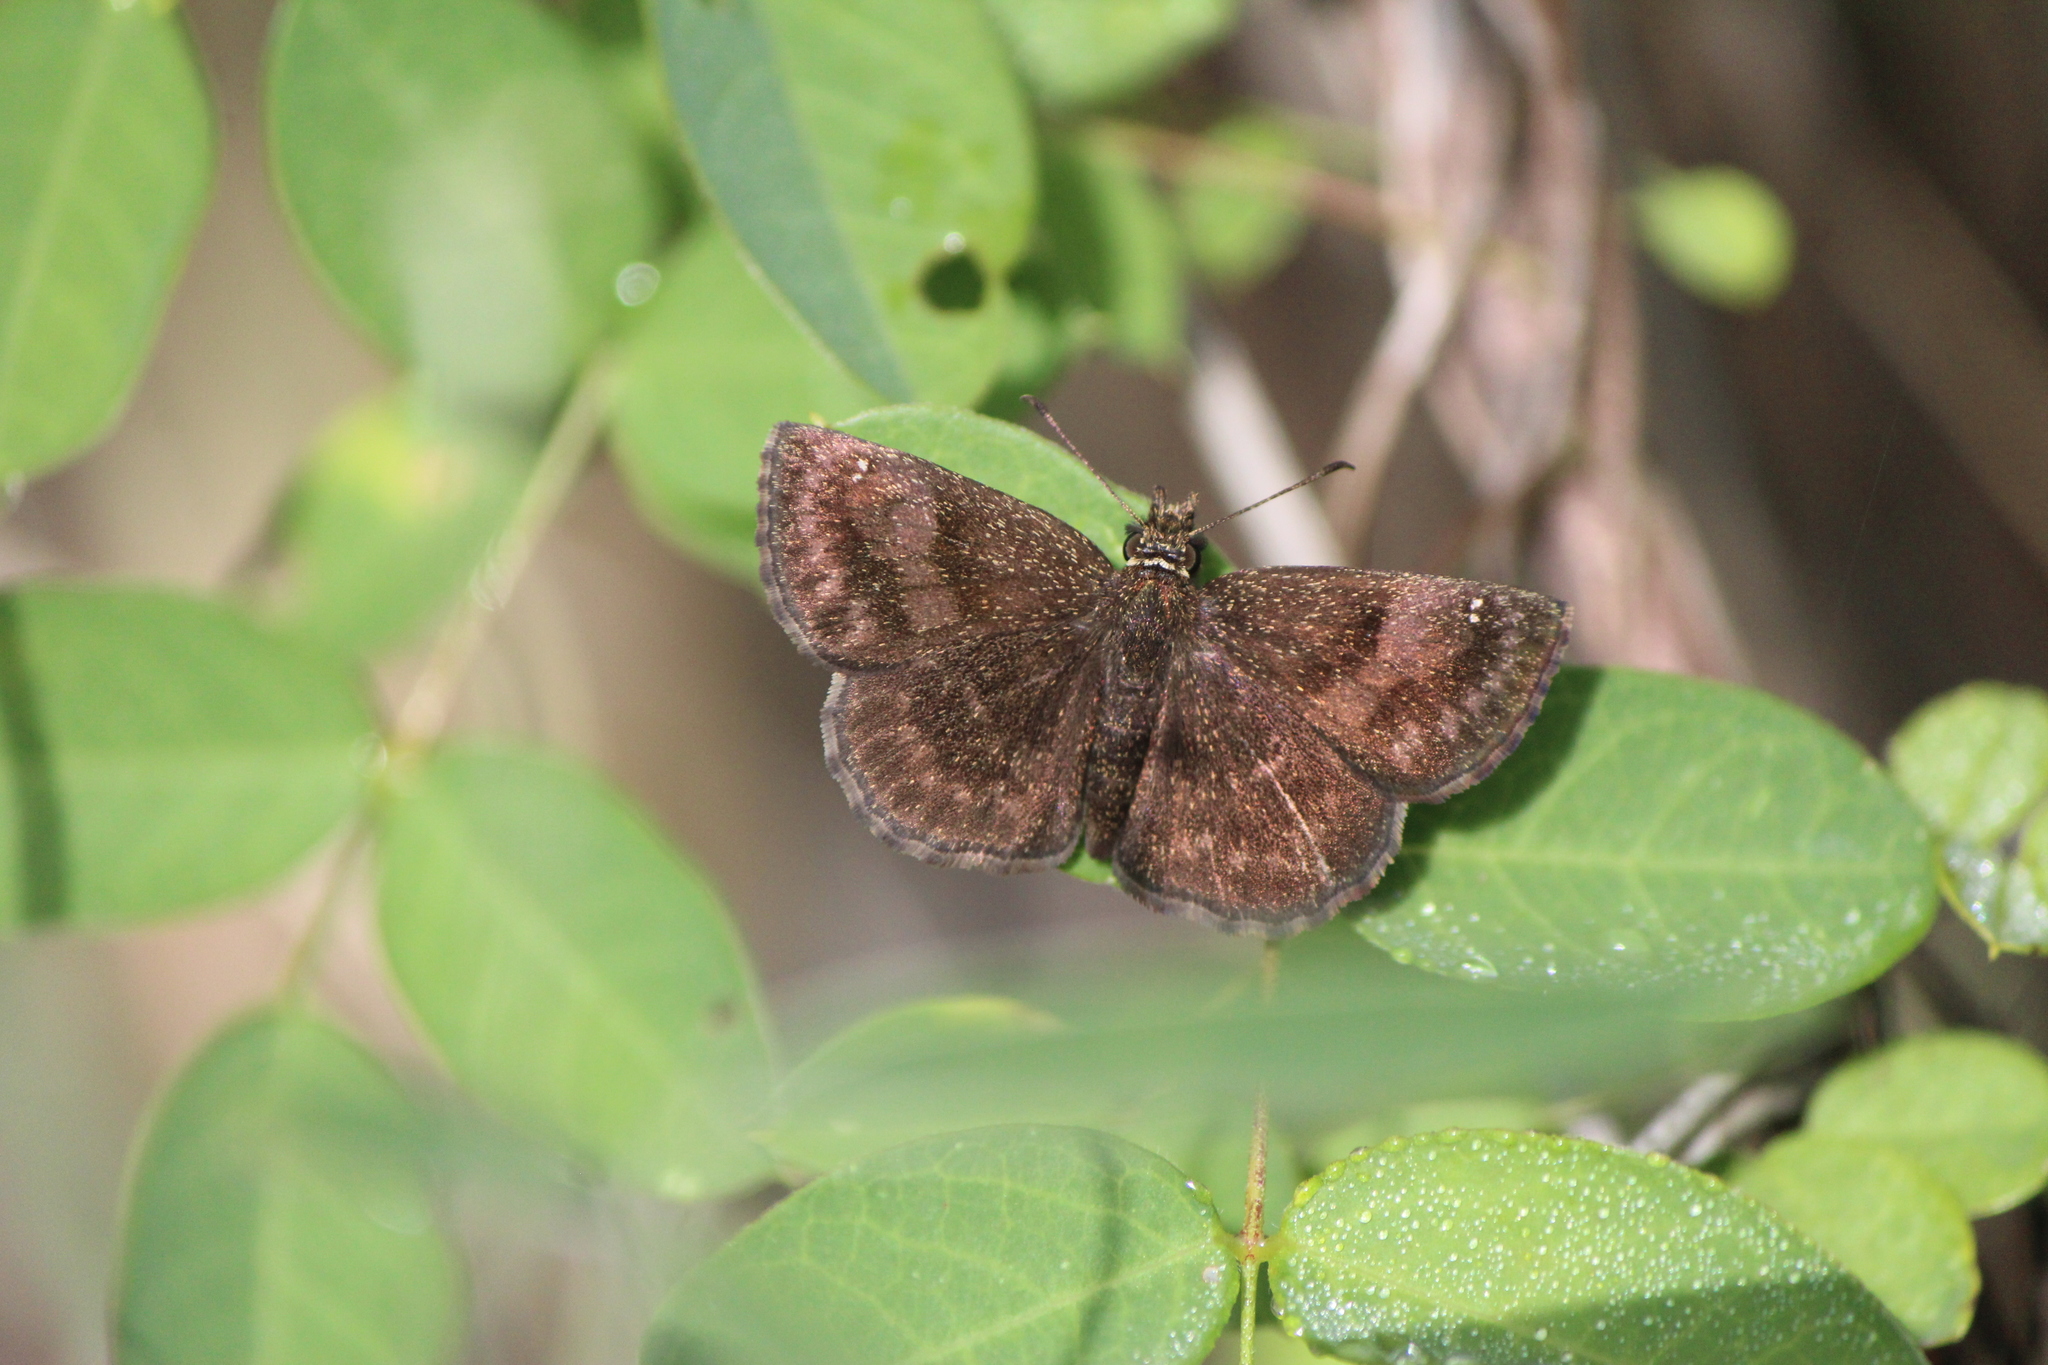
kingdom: Animalia
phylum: Arthropoda
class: Insecta
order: Lepidoptera
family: Hesperiidae
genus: Staphylus
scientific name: Staphylus vincula
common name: Mountain sootywing
